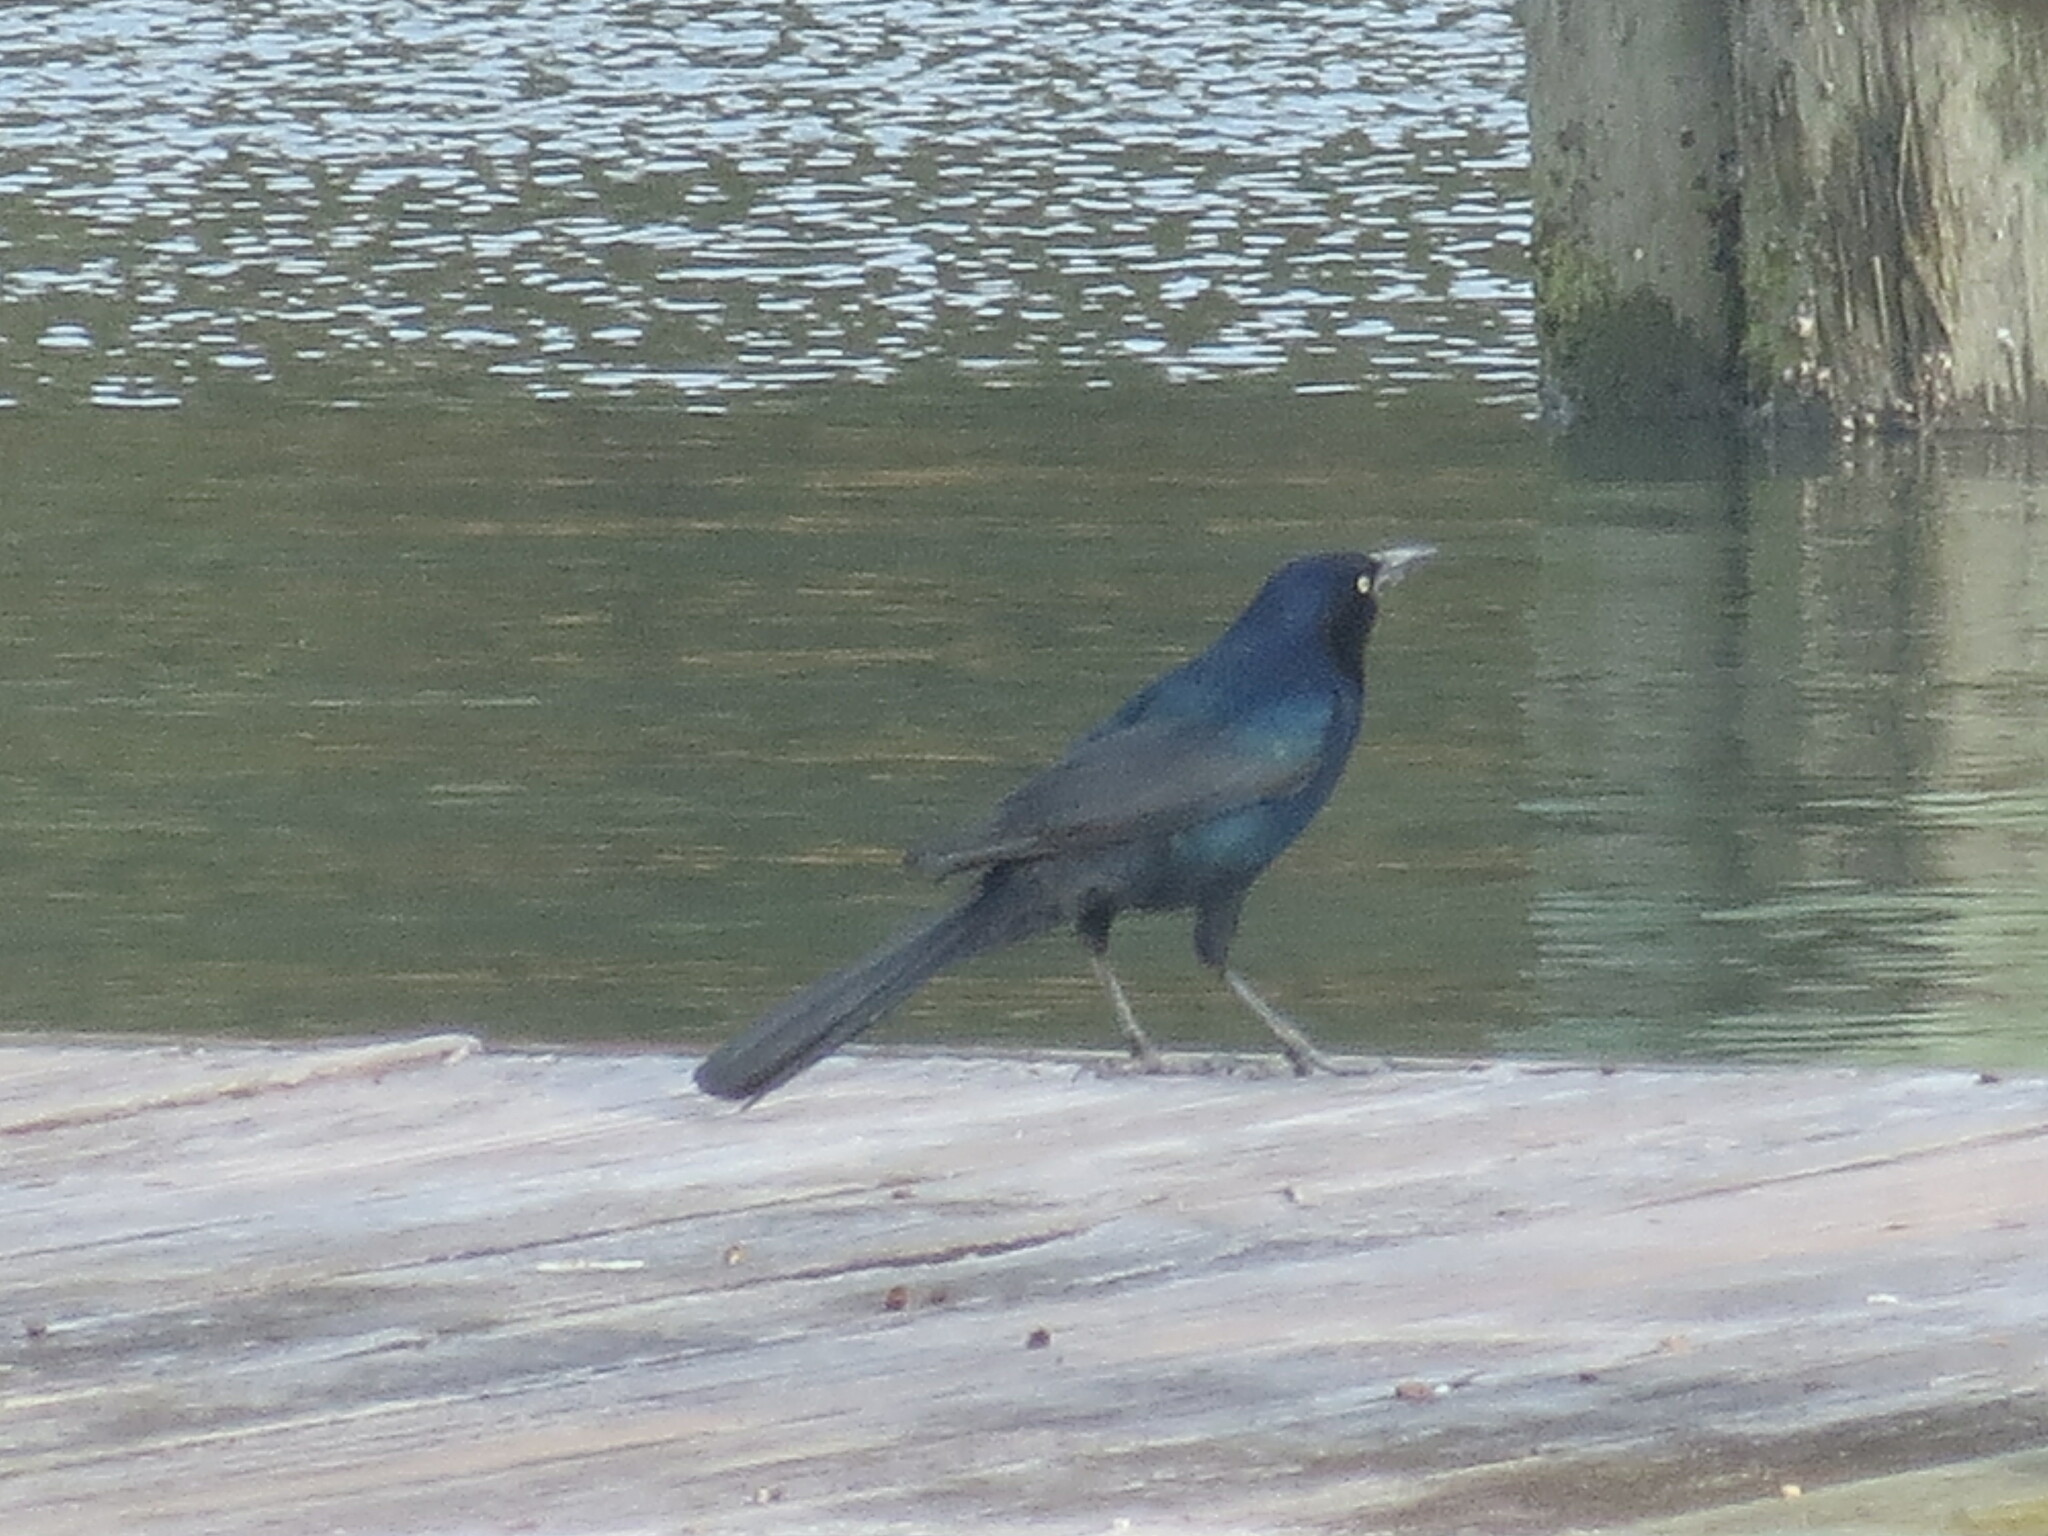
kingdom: Animalia
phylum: Chordata
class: Aves
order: Passeriformes
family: Icteridae
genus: Quiscalus
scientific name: Quiscalus major
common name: Boat-tailed grackle
